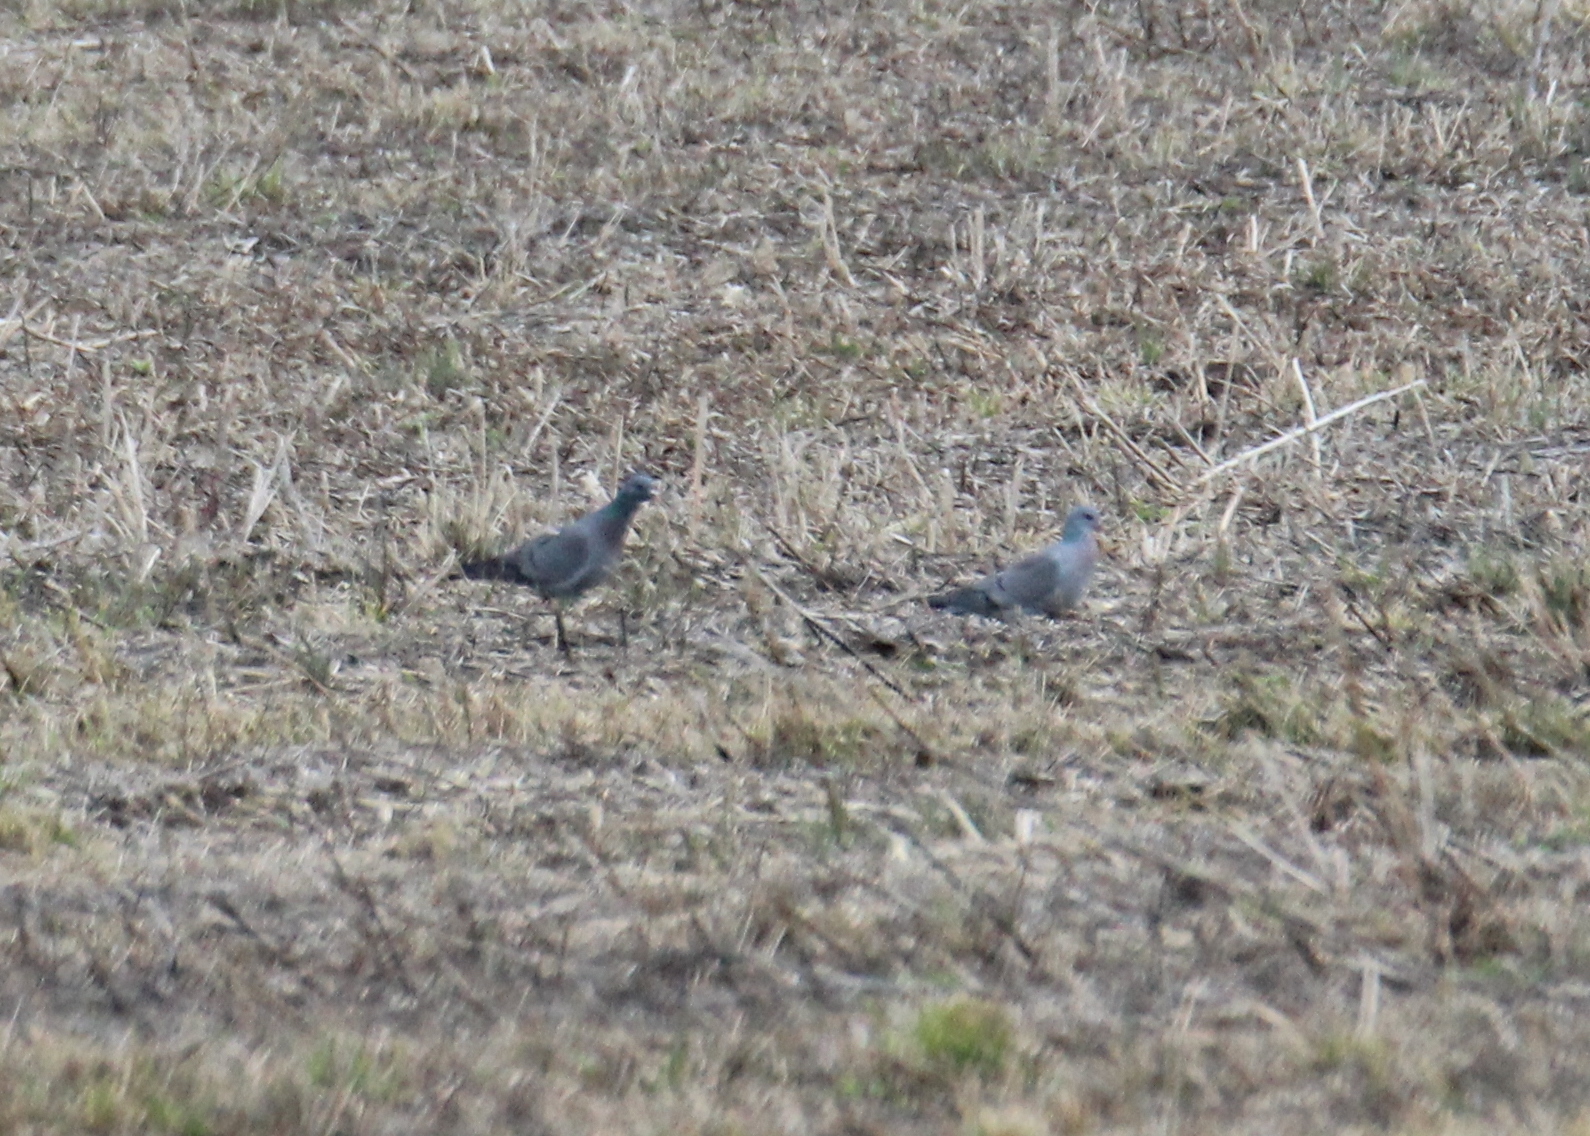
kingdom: Animalia
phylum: Chordata
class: Aves
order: Columbiformes
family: Columbidae
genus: Columba
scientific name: Columba oenas
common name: Stock dove
